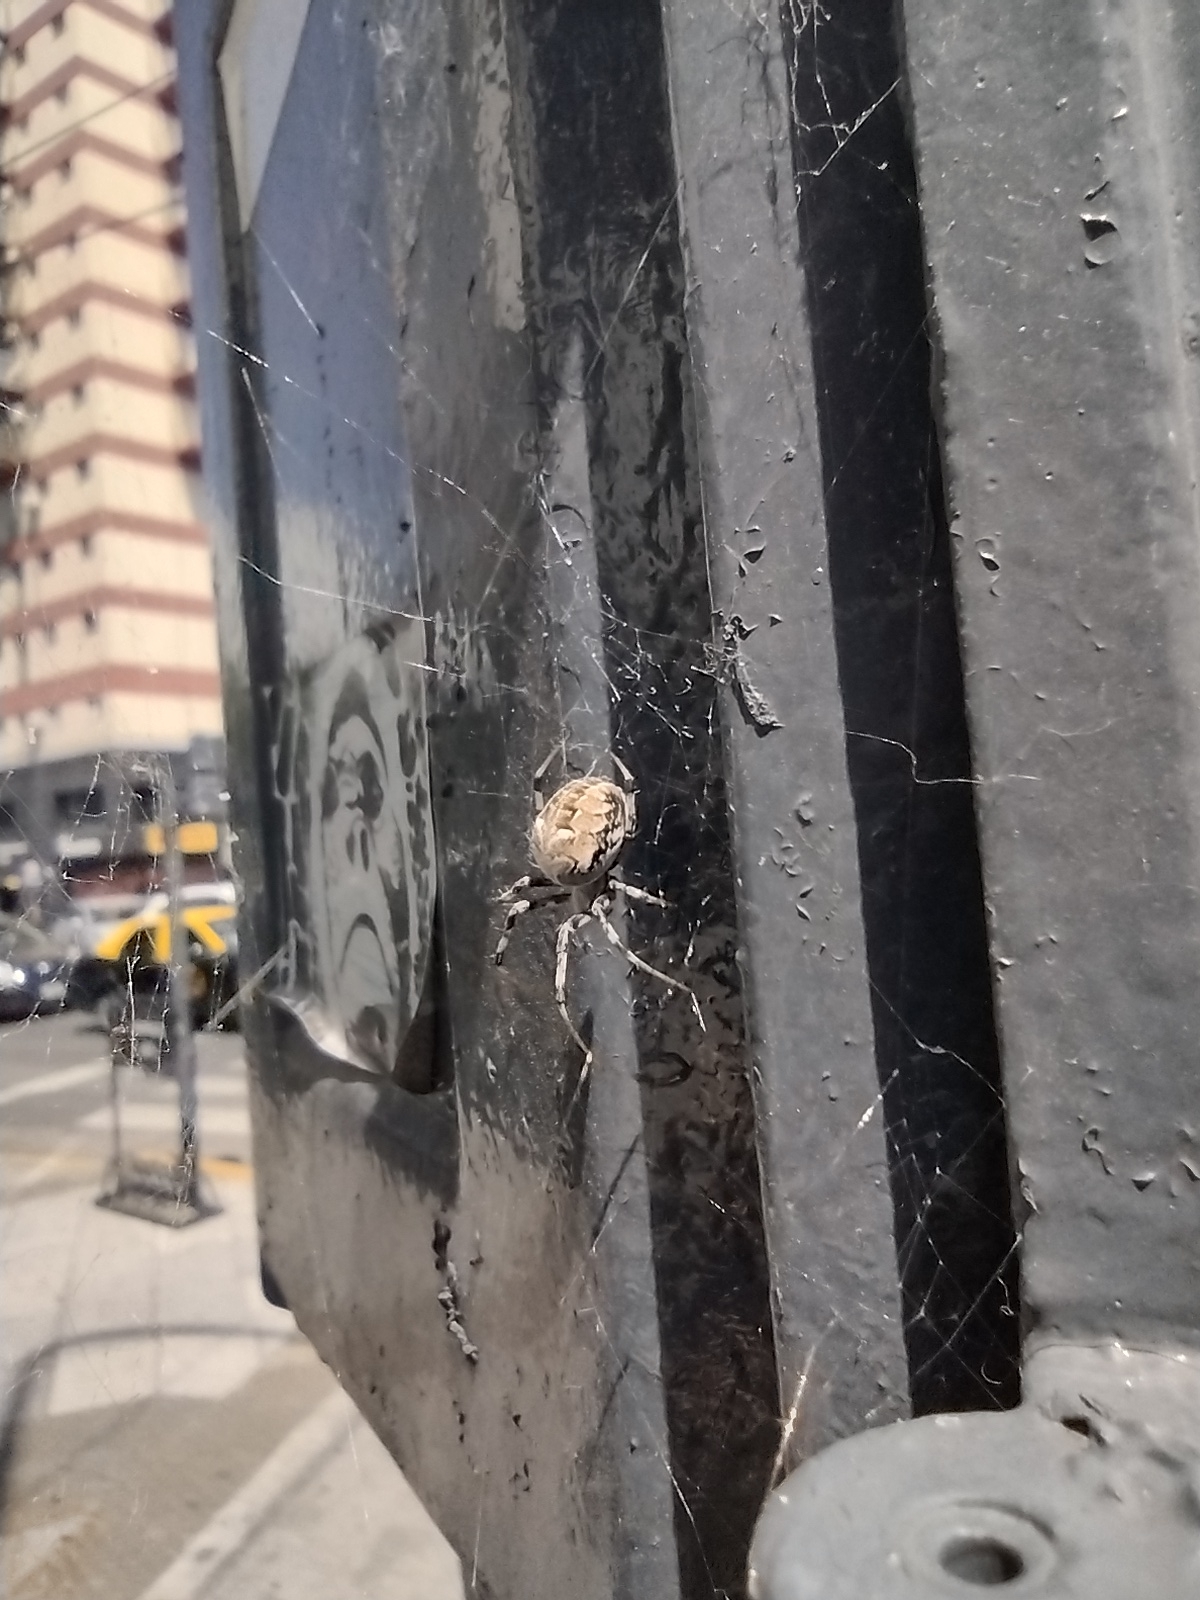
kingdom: Animalia
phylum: Arthropoda
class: Arachnida
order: Araneae
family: Araneidae
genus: Metepeira
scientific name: Metepeira
